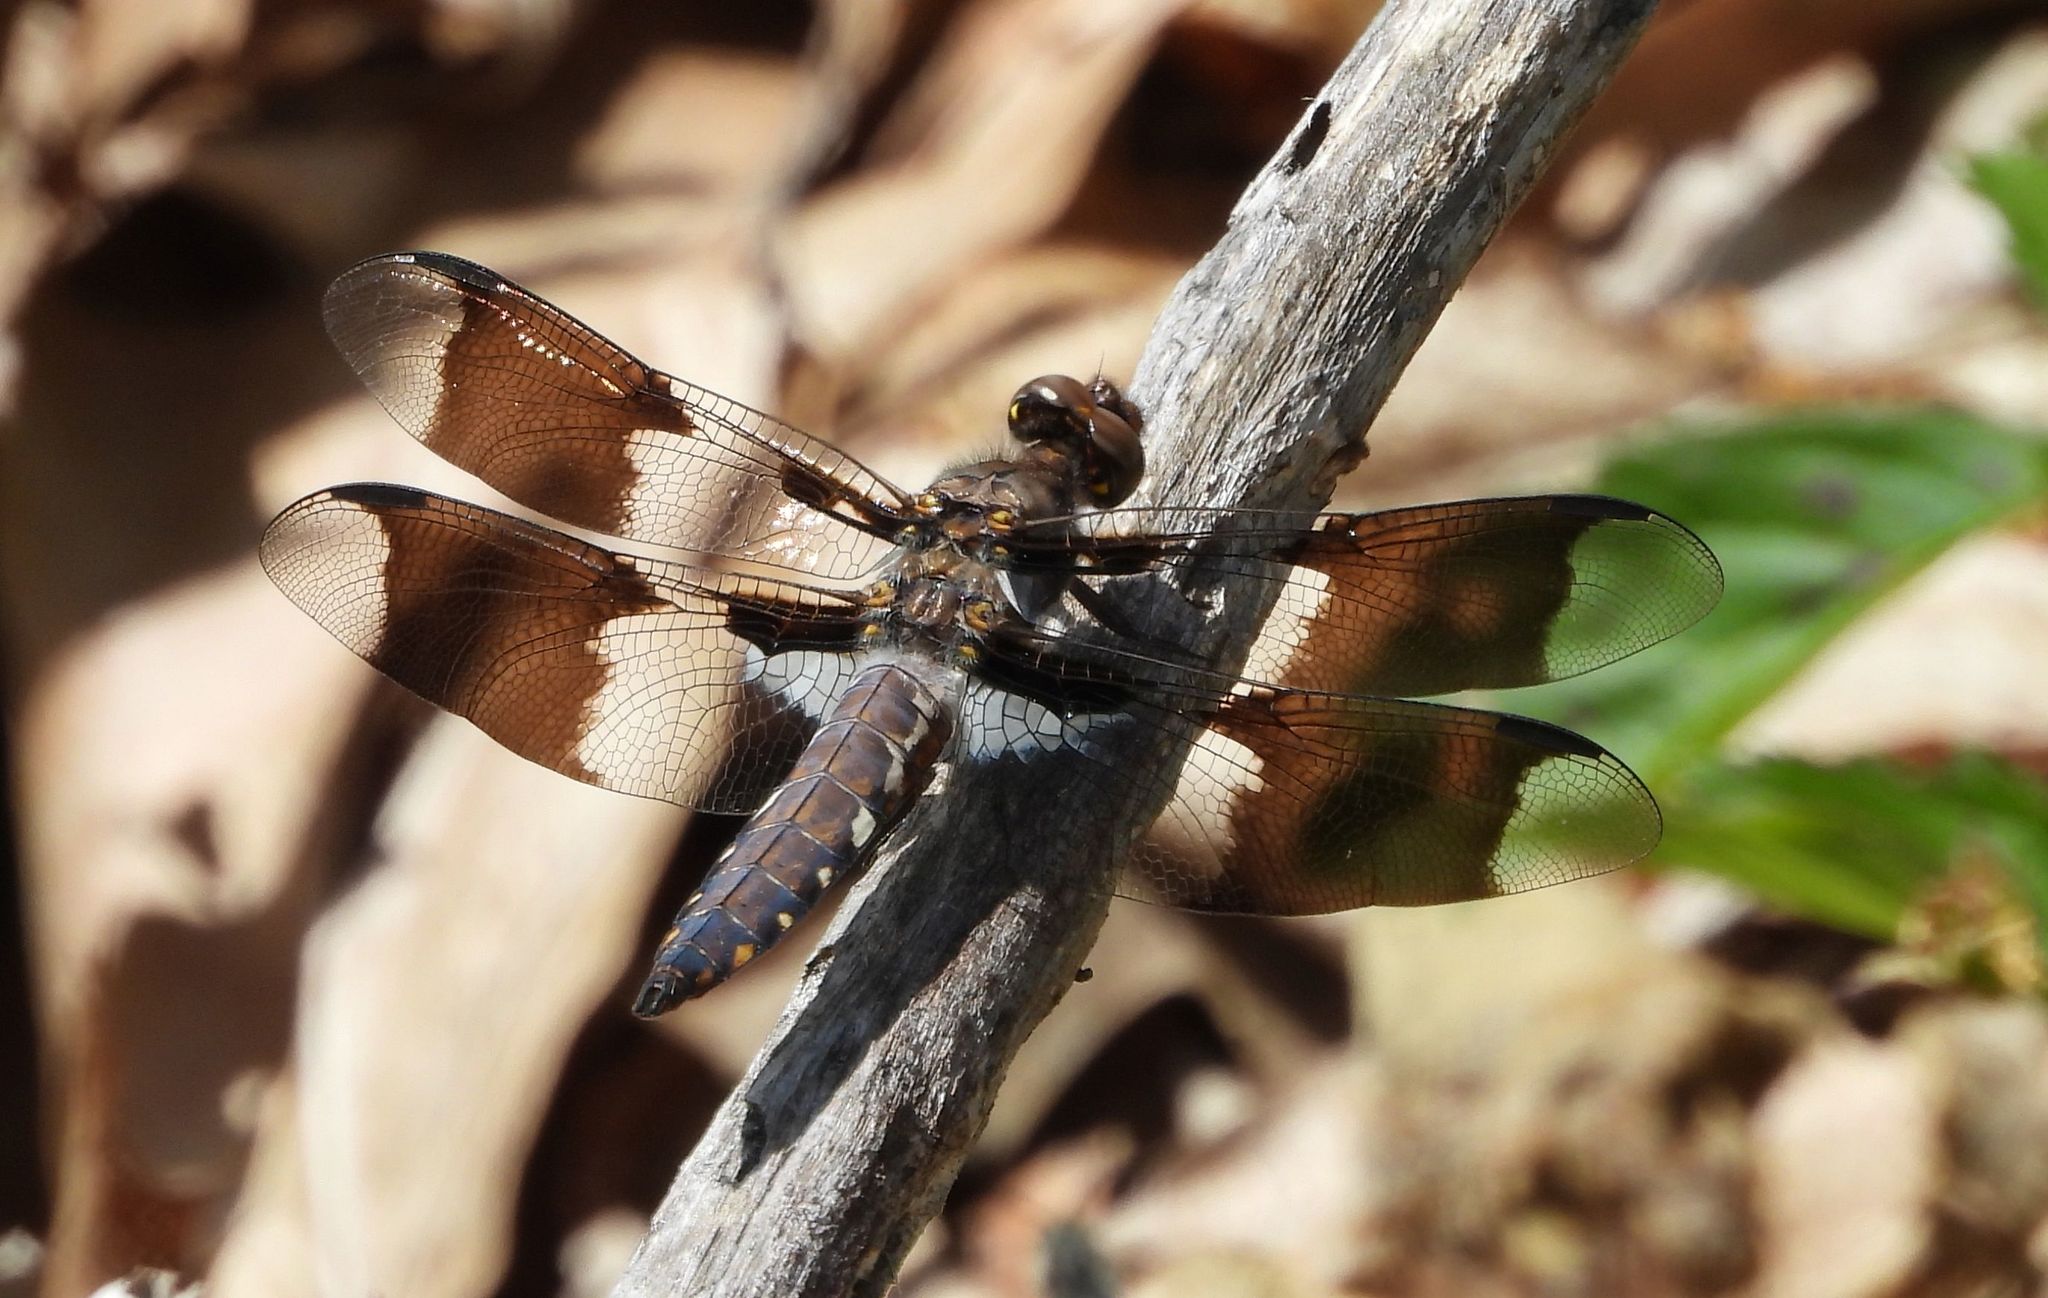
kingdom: Animalia
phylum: Arthropoda
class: Insecta
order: Odonata
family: Libellulidae
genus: Plathemis
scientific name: Plathemis lydia
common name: Common whitetail
